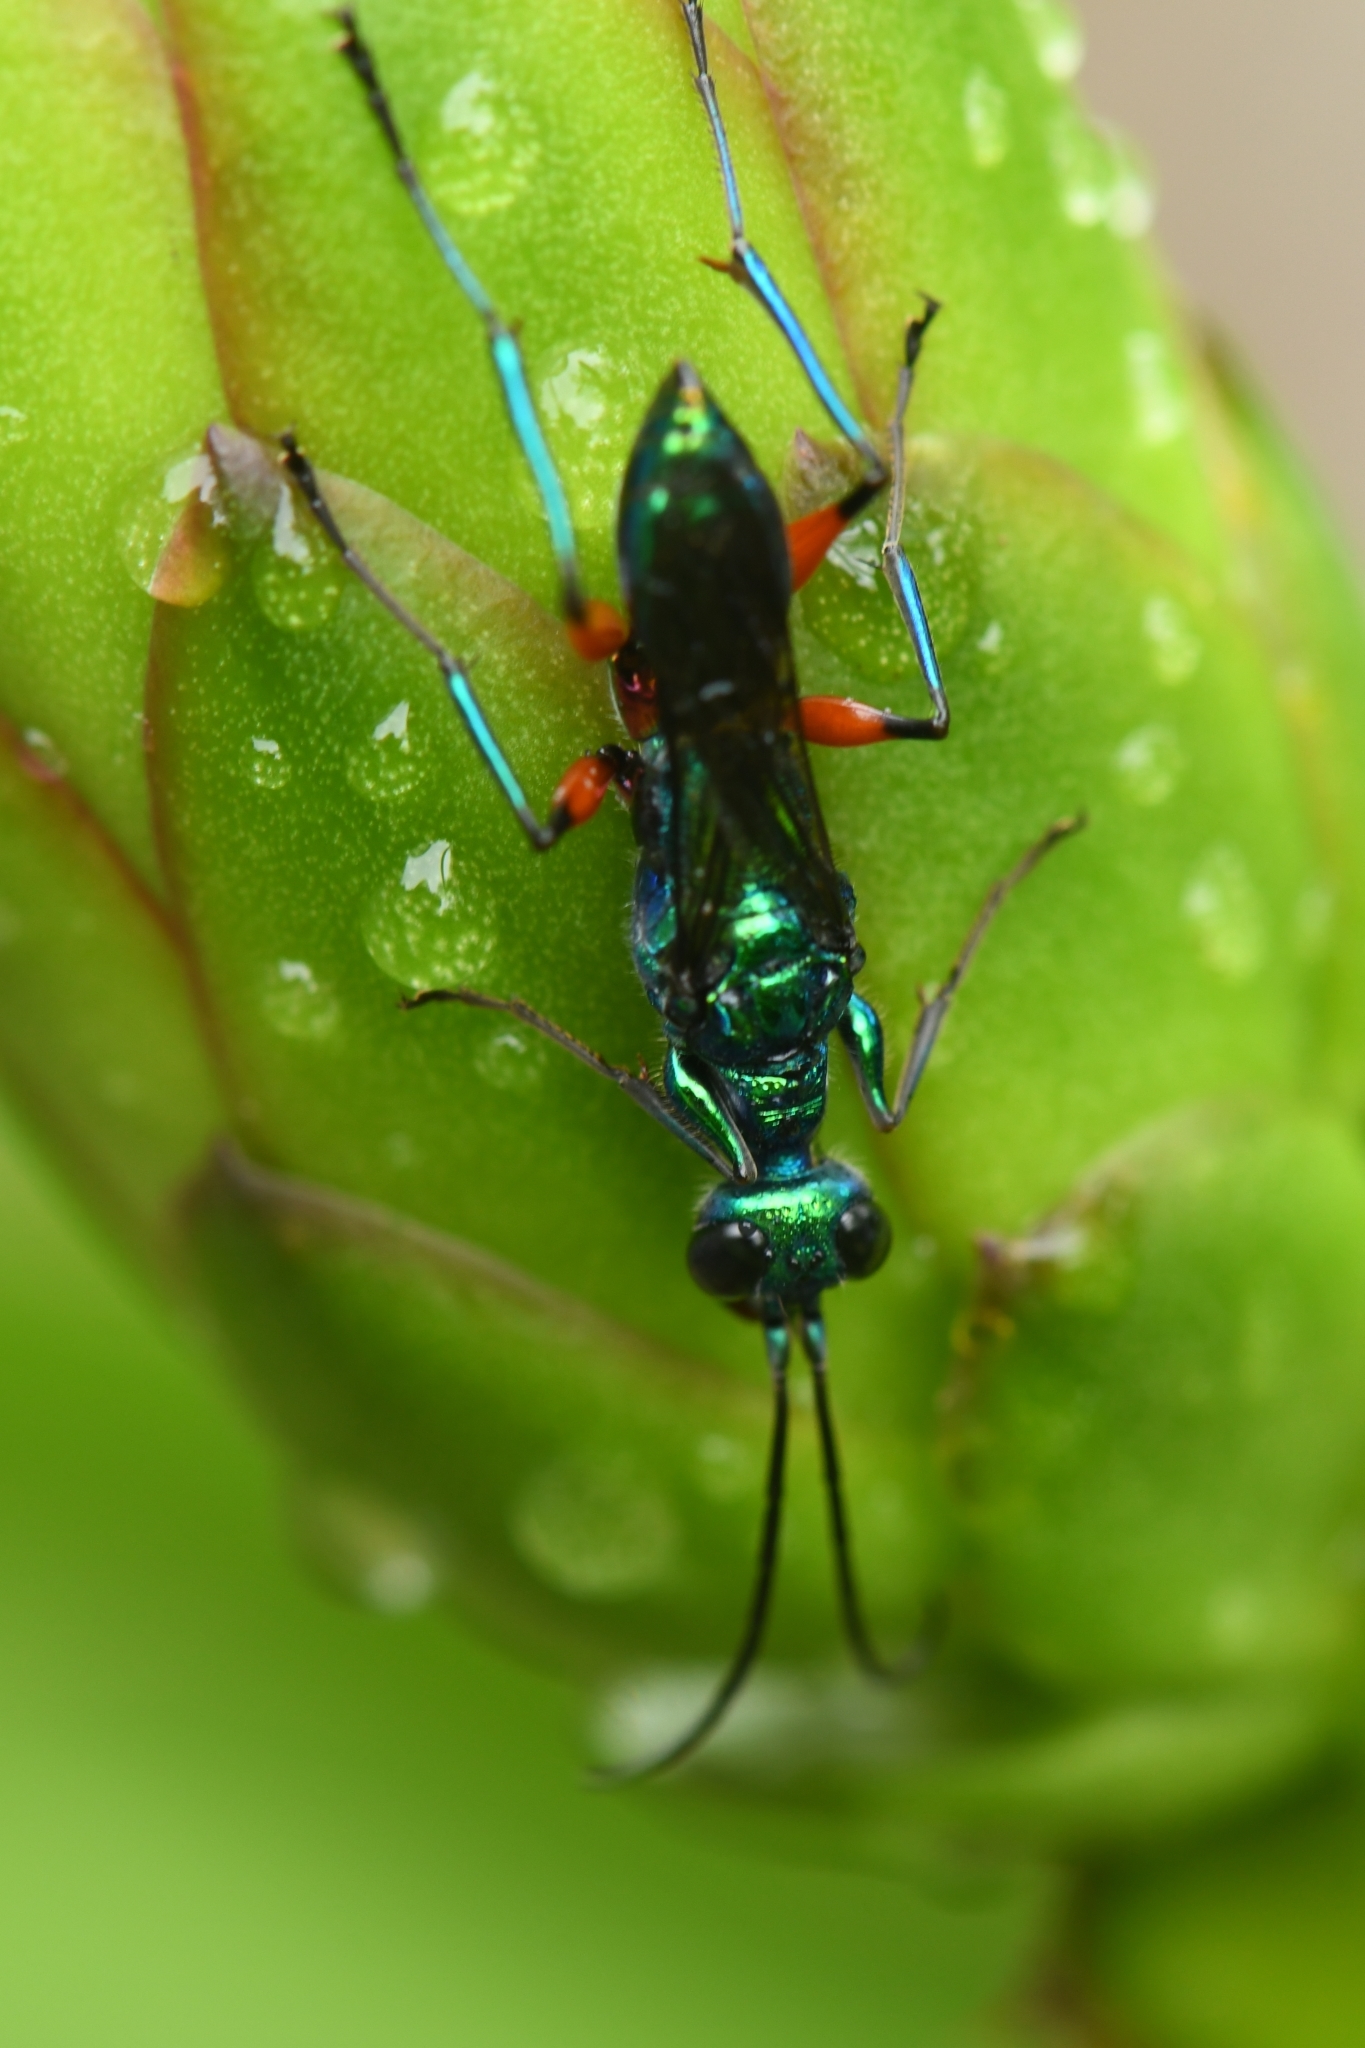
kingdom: Animalia
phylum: Arthropoda
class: Insecta
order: Hymenoptera
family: Ampulicidae
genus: Ampulex
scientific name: Ampulex compressa
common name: Emerald cockroach wasp
